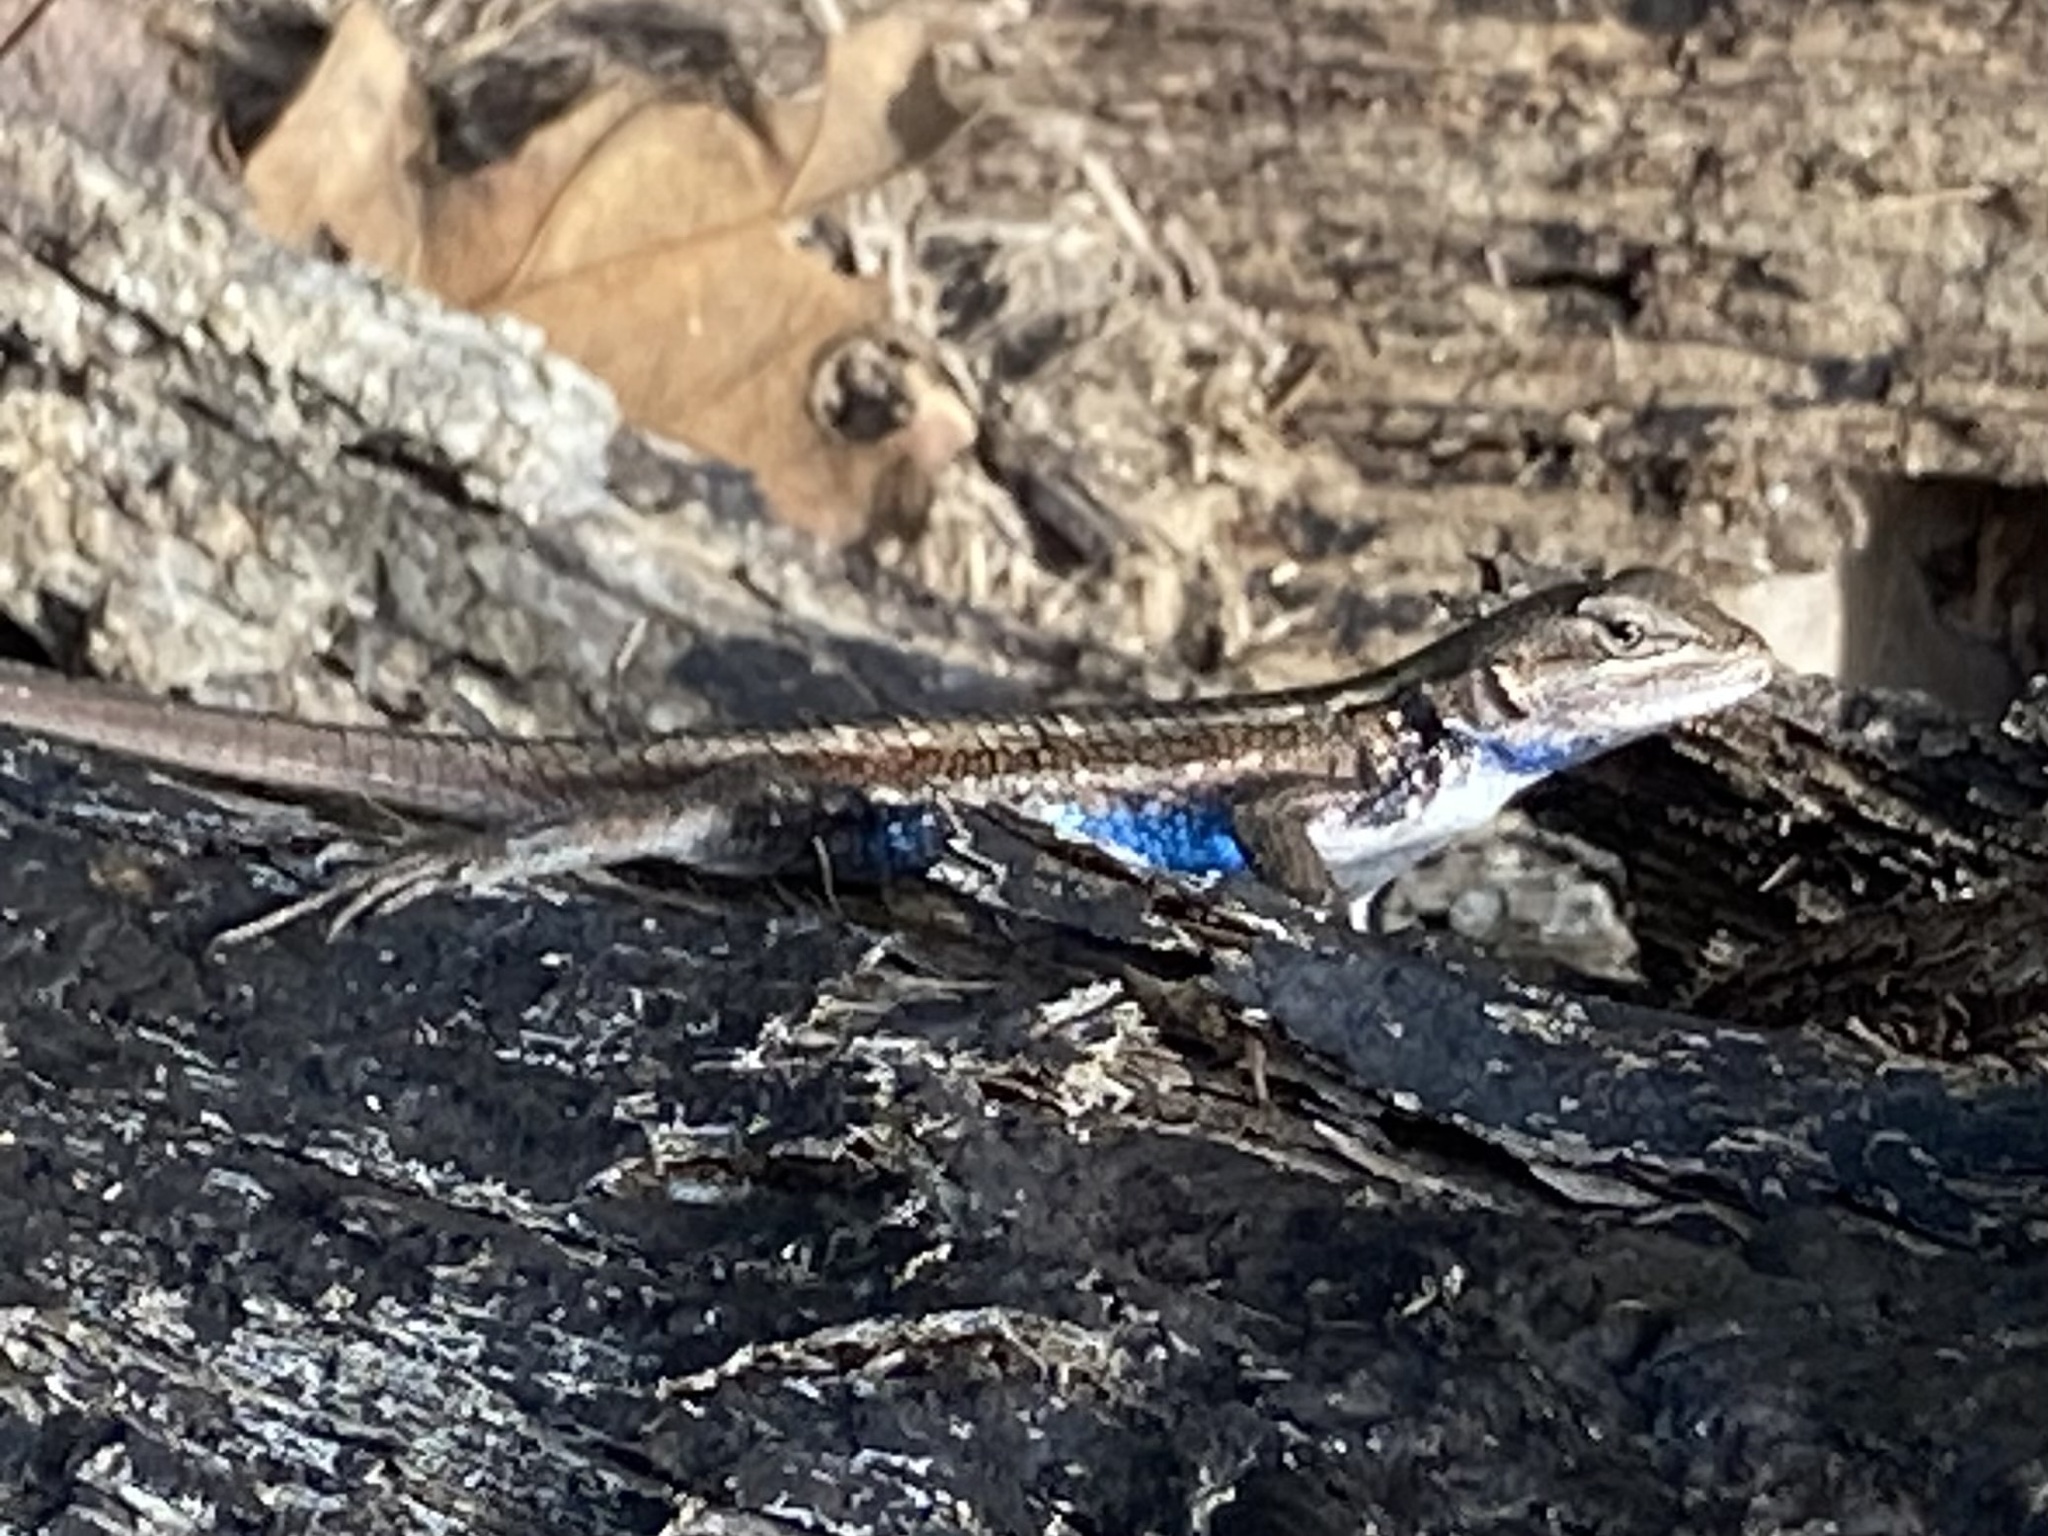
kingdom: Animalia
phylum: Chordata
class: Squamata
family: Phrynosomatidae
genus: Sceloporus
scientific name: Sceloporus consobrinus
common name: Southern prairie lizard
